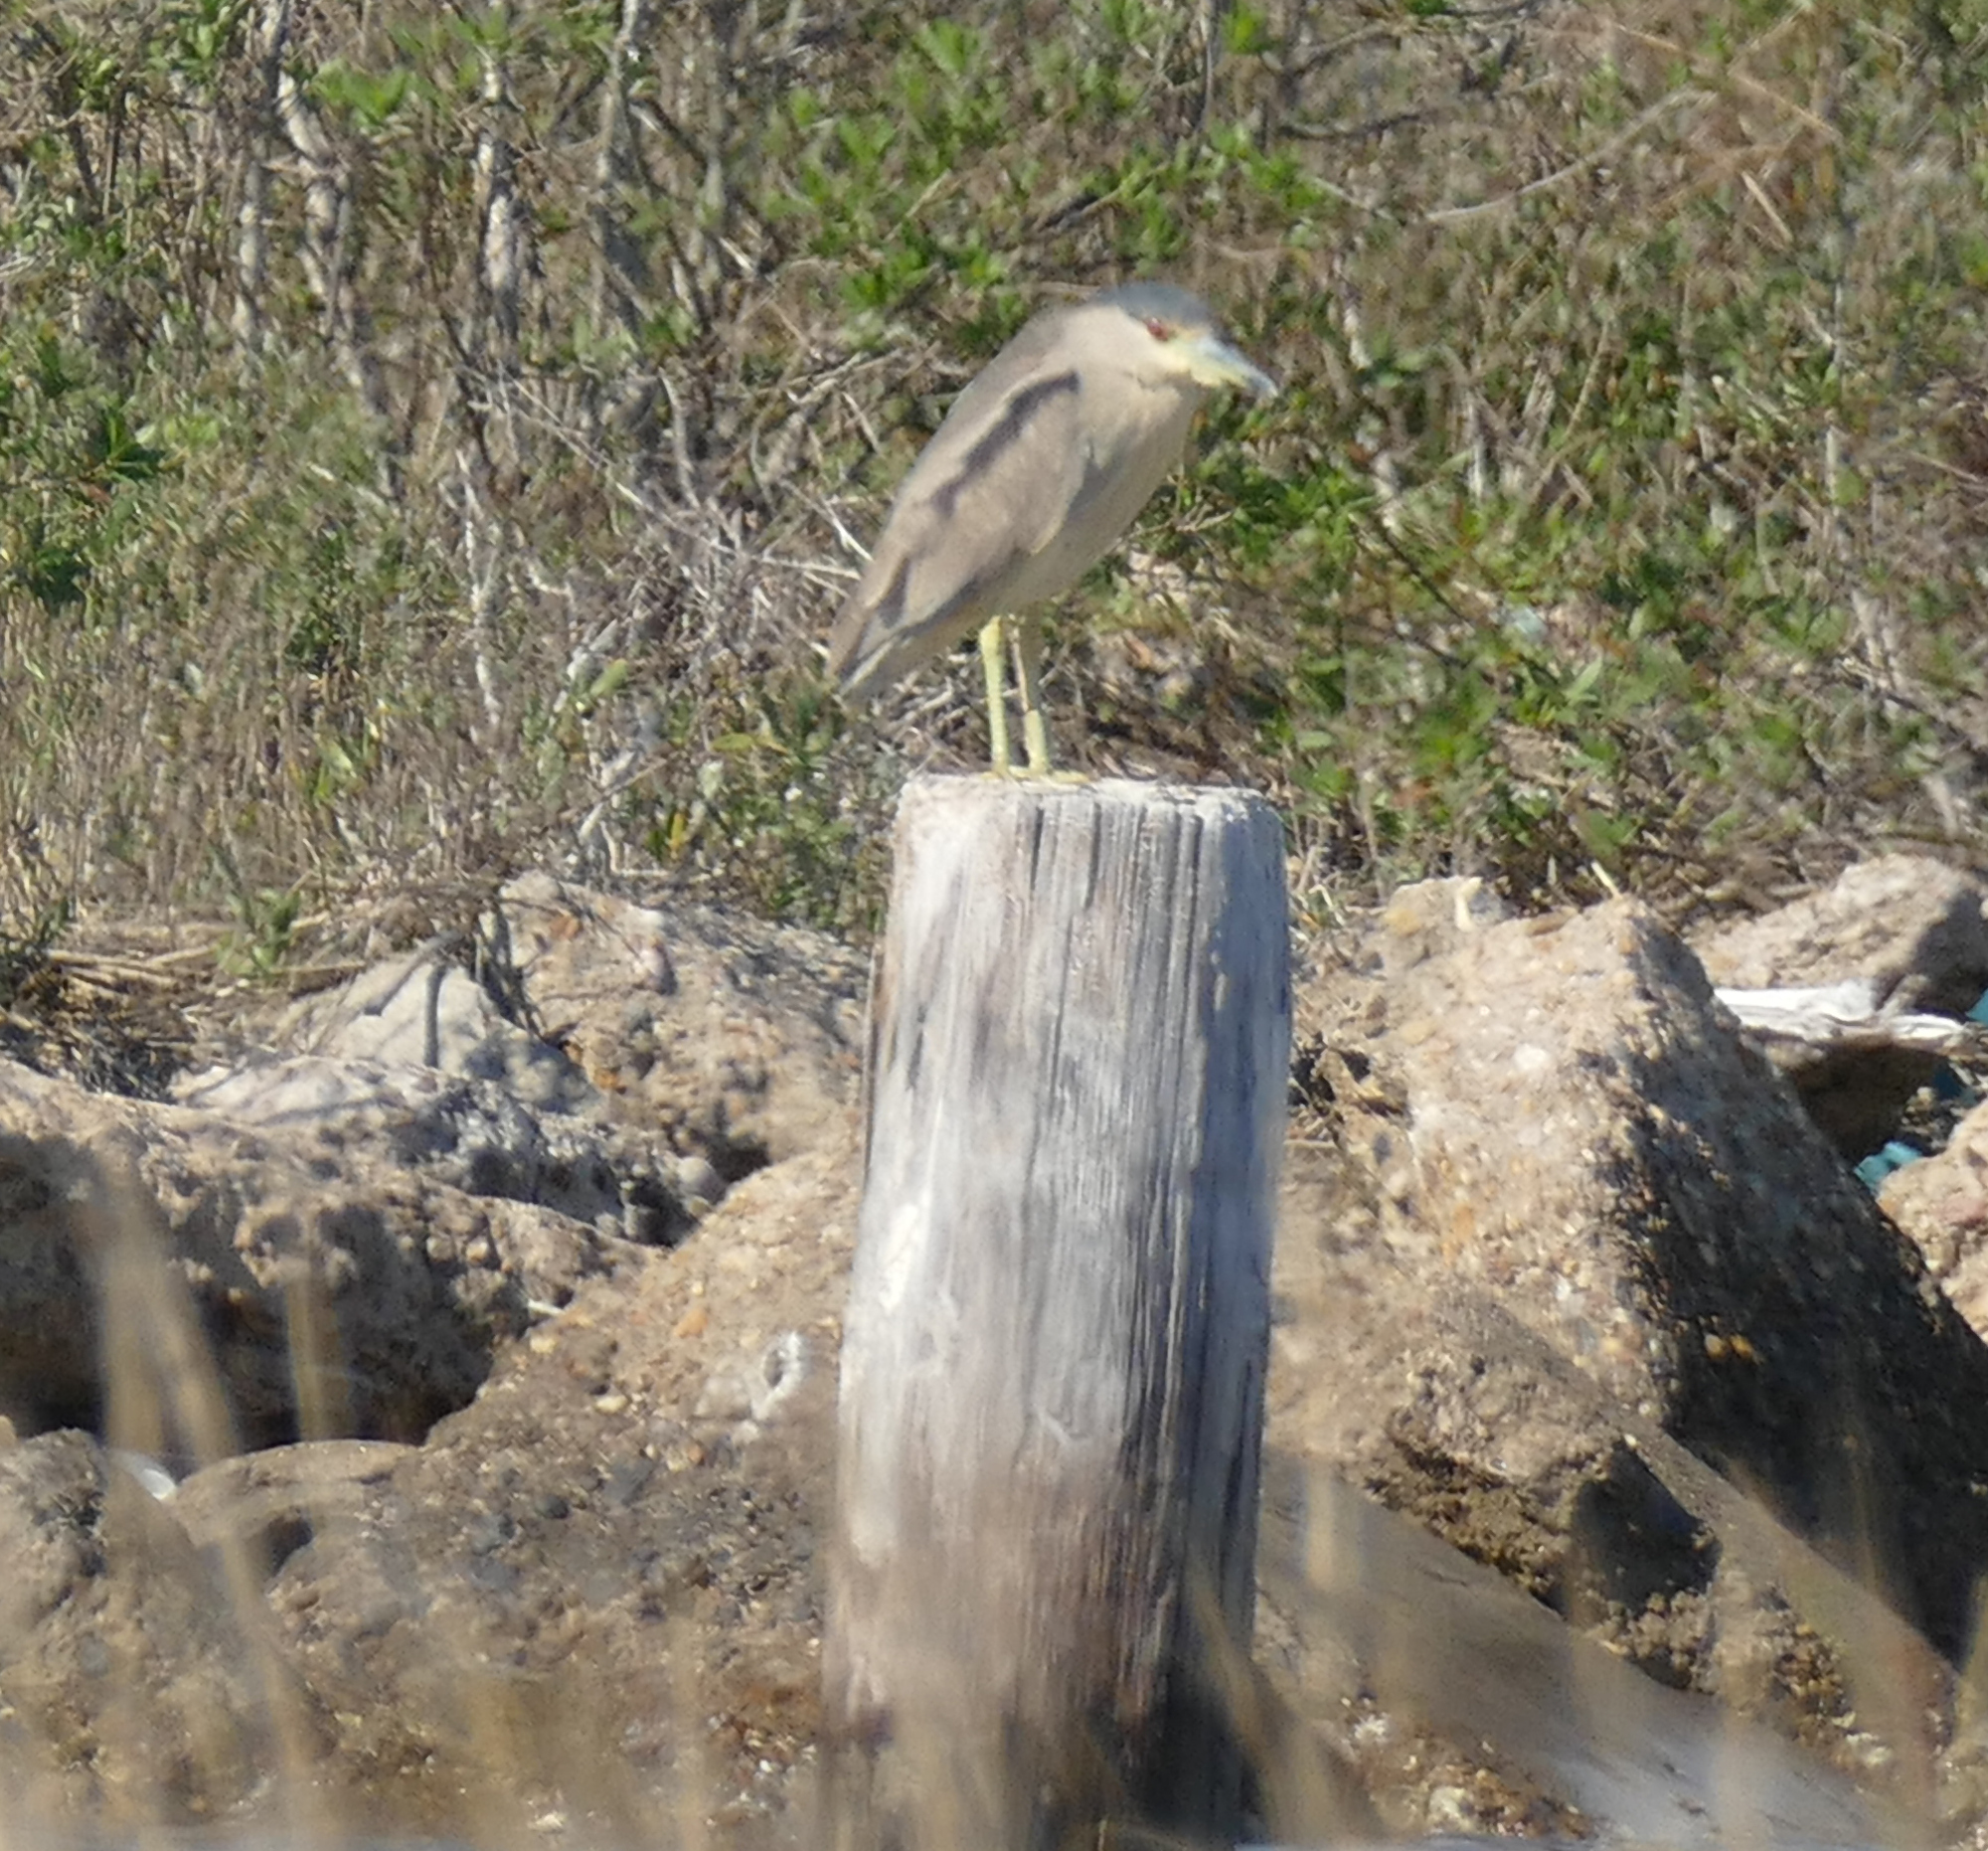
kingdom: Animalia
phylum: Chordata
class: Aves
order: Pelecaniformes
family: Ardeidae
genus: Nycticorax
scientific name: Nycticorax nycticorax
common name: Black-crowned night heron
